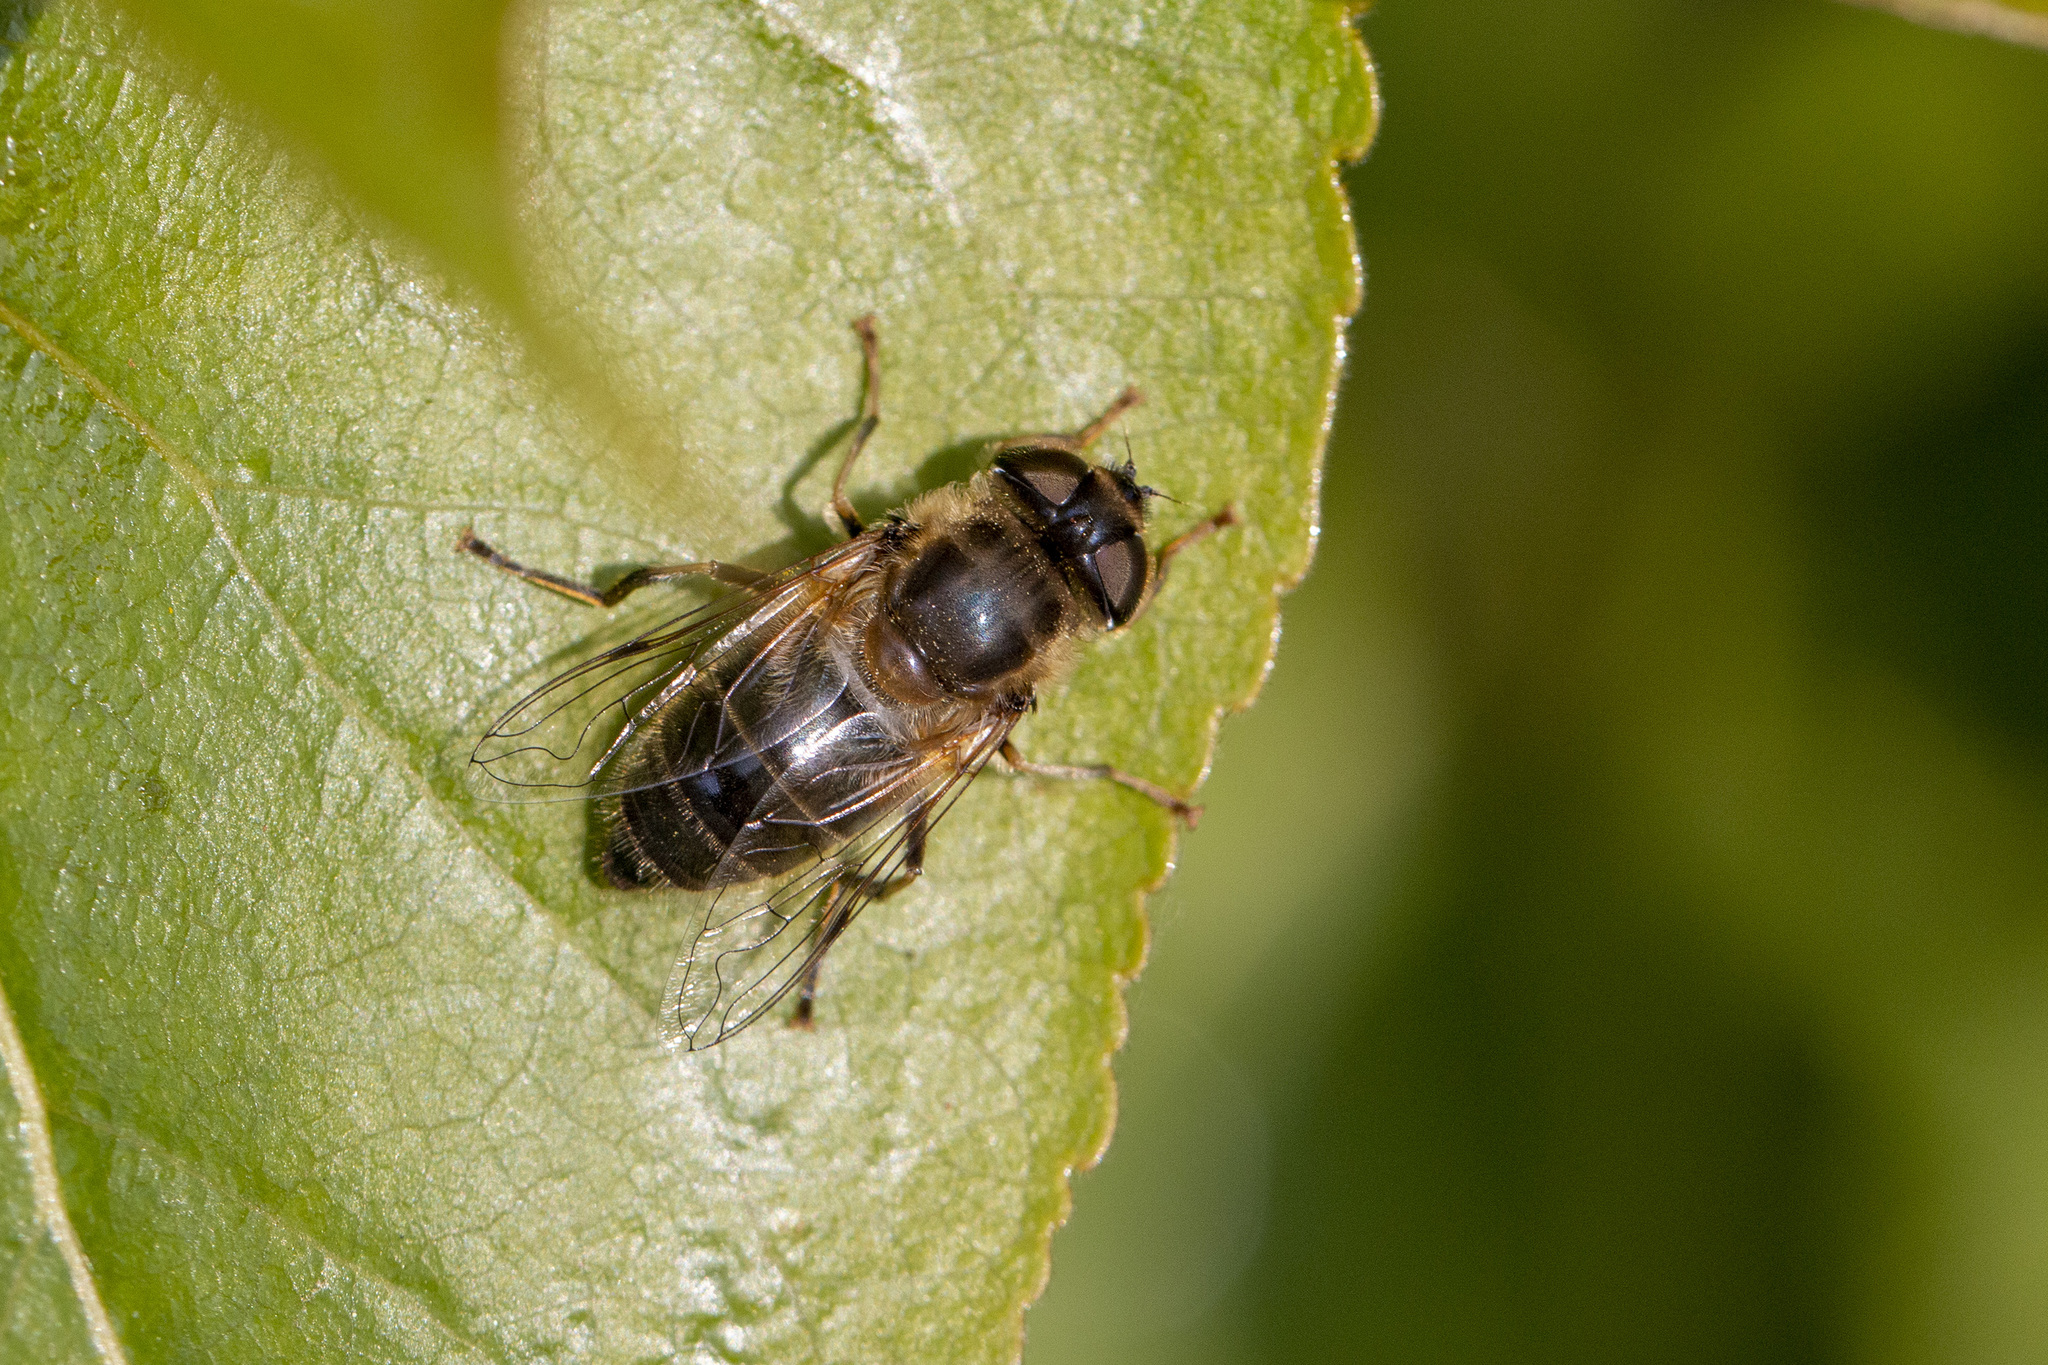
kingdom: Animalia
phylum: Arthropoda
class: Insecta
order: Diptera
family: Syrphidae
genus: Eristalis
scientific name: Eristalis pertinax
